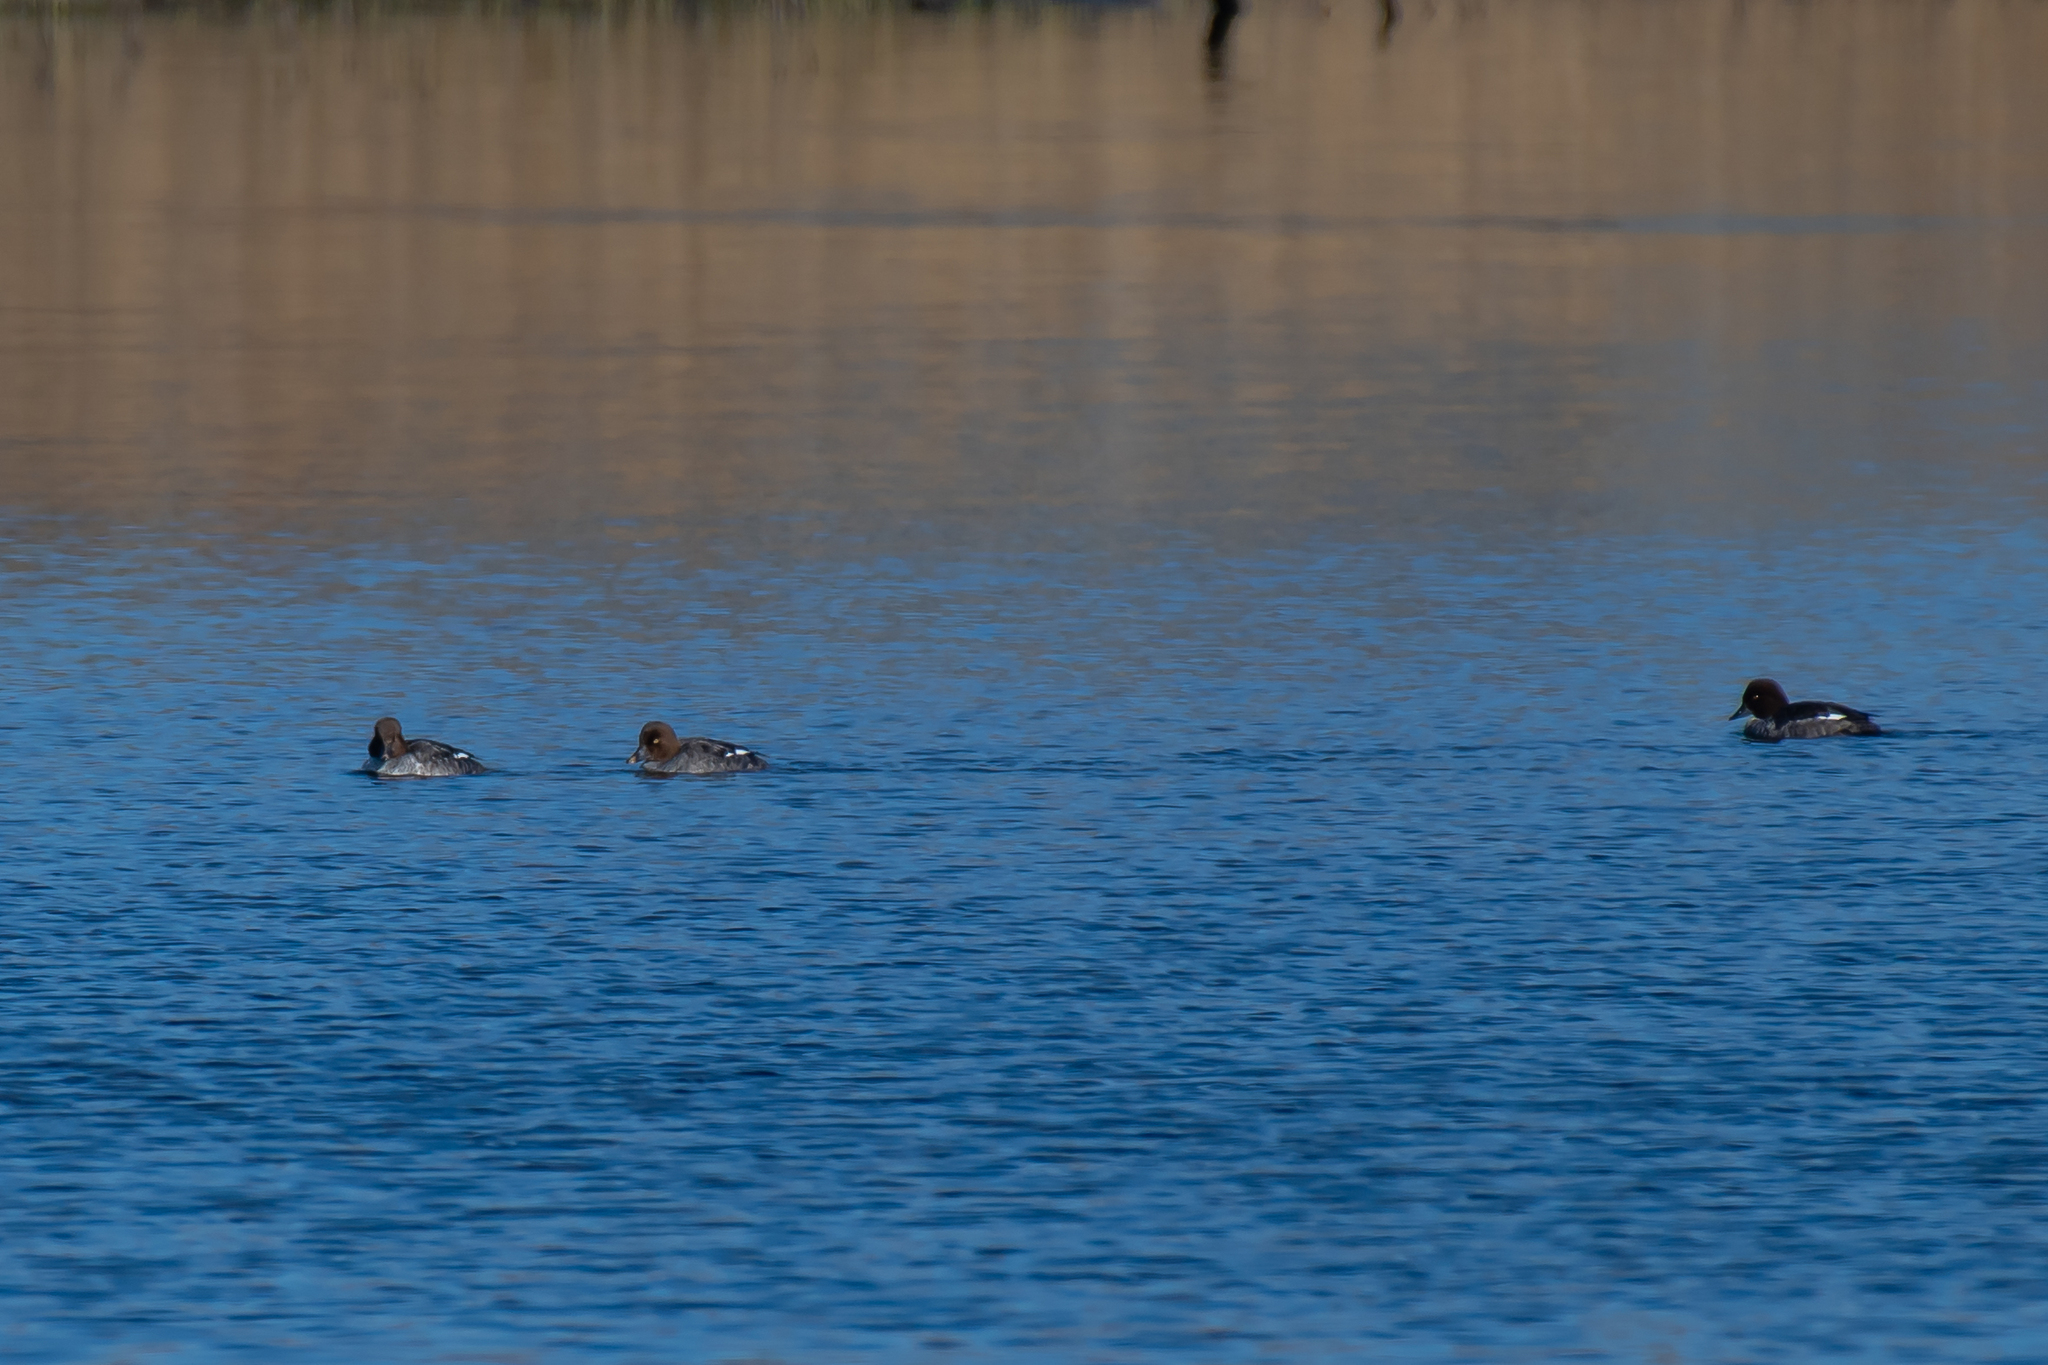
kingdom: Animalia
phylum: Chordata
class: Aves
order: Anseriformes
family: Anatidae
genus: Bucephala
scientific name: Bucephala clangula
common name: Common goldeneye
